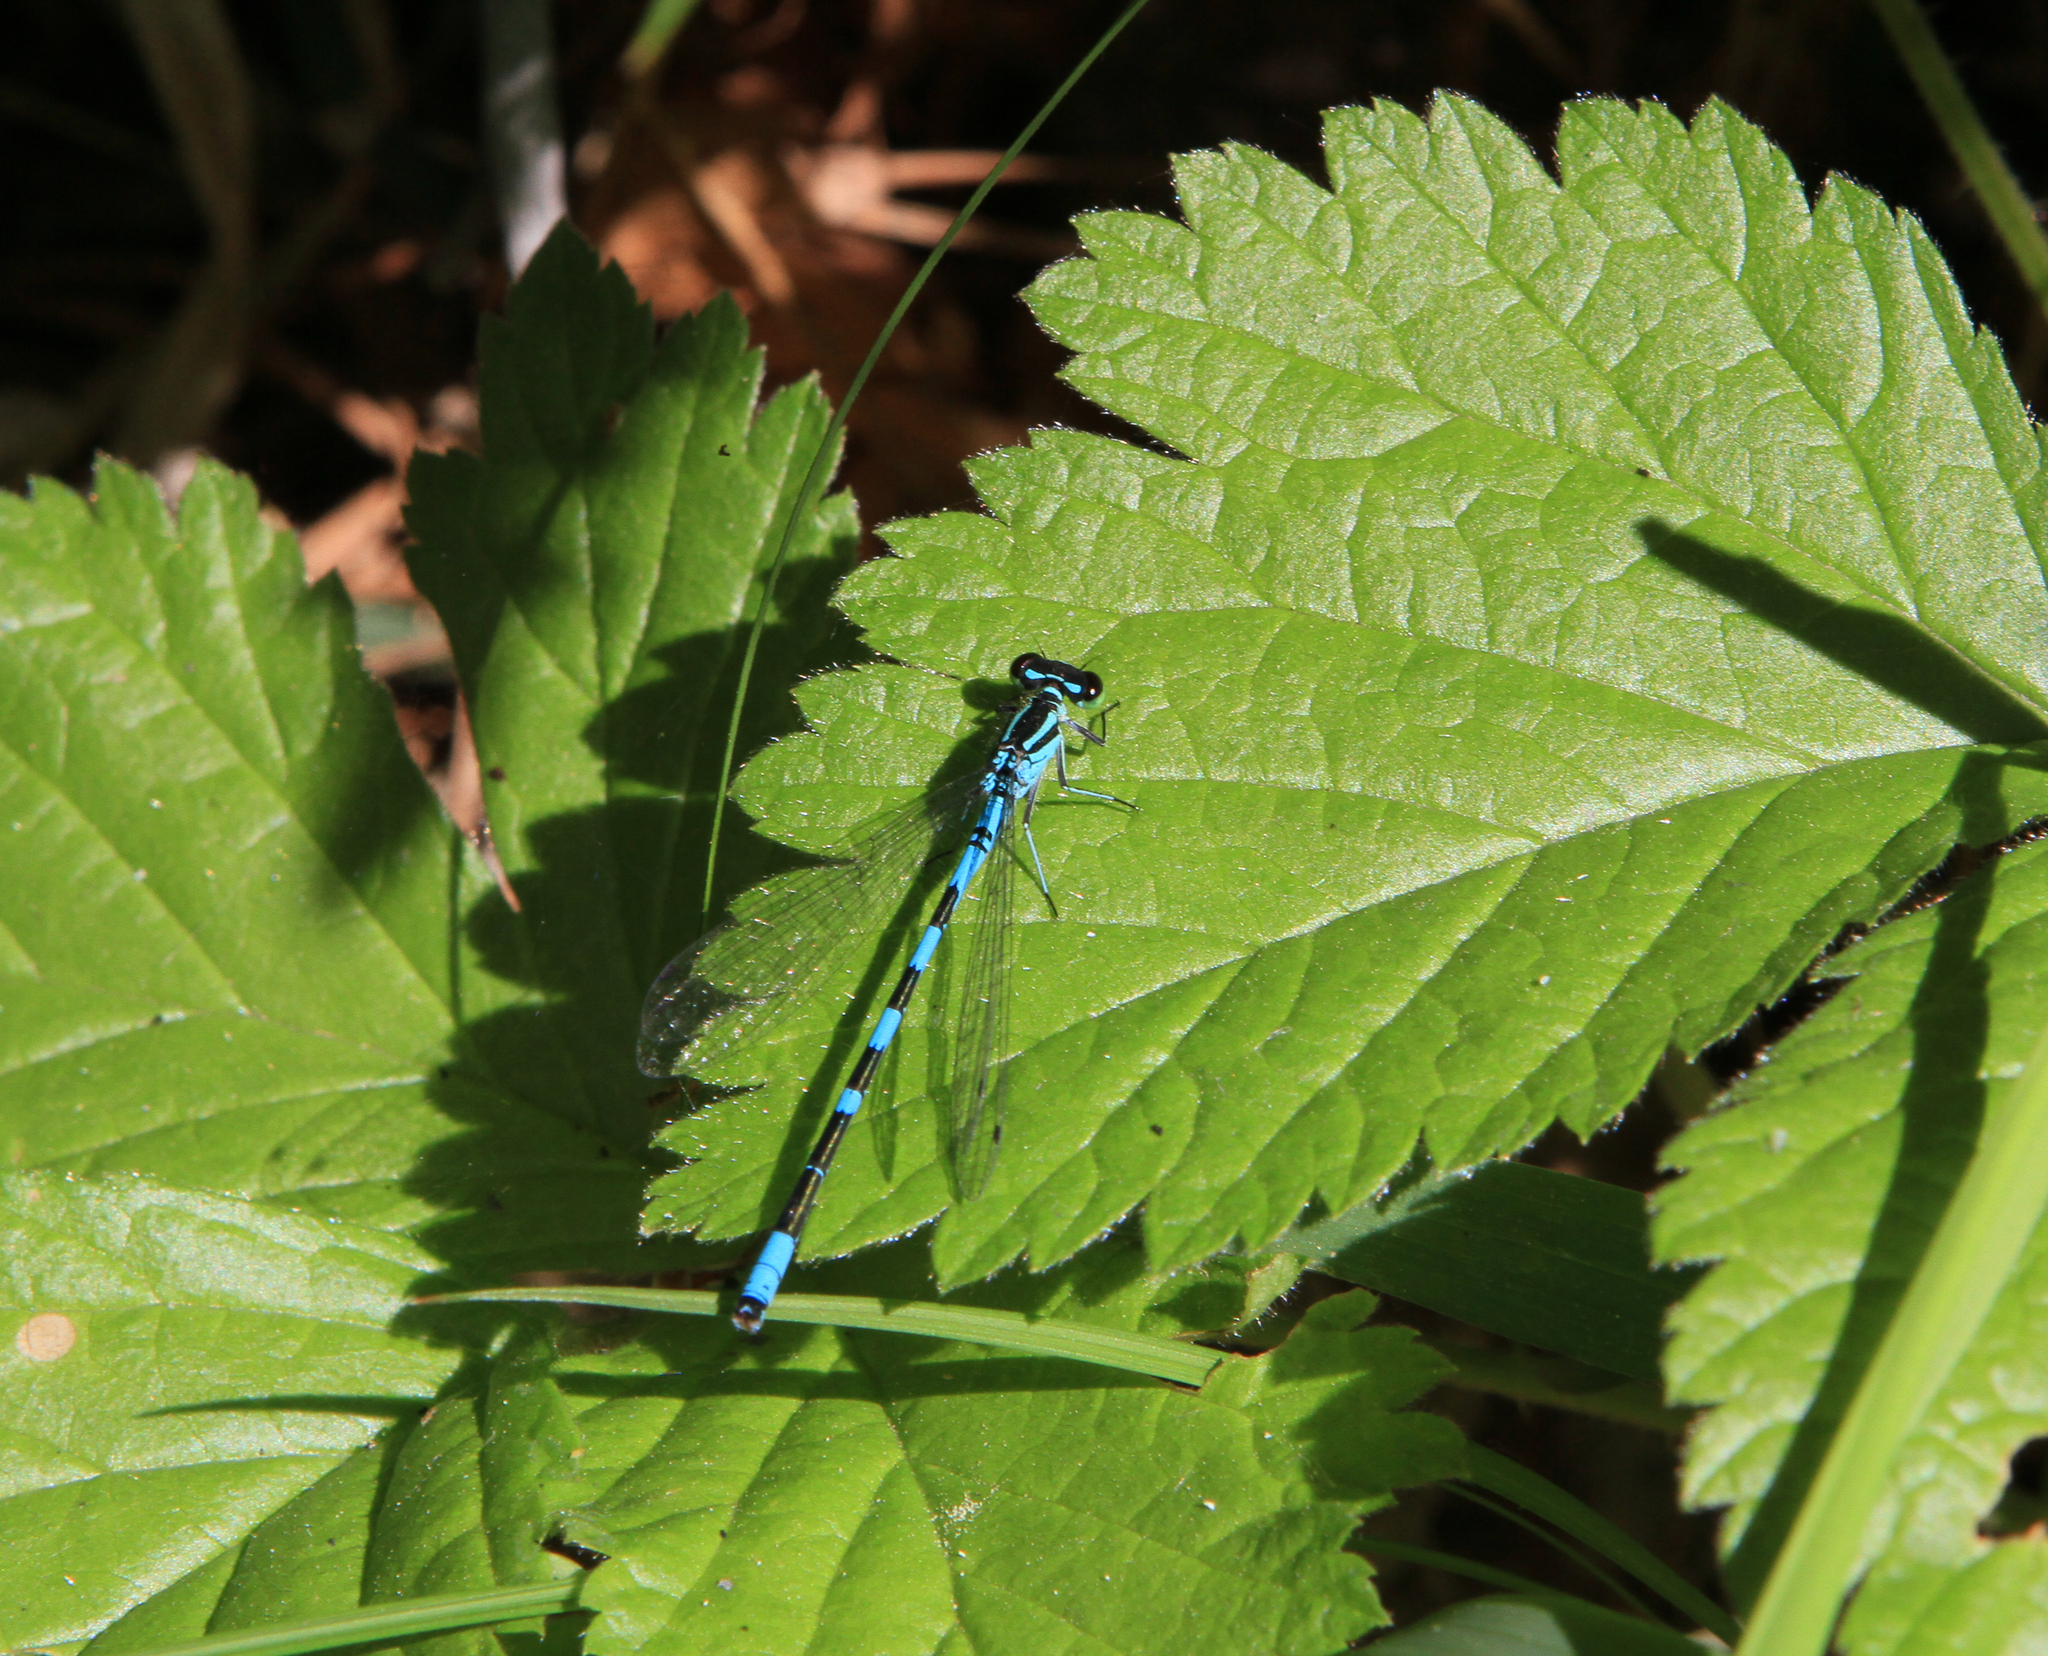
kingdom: Animalia
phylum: Arthropoda
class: Insecta
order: Odonata
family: Coenagrionidae
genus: Coenagrion
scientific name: Coenagrion hastulatum
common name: Spearhead bluet
